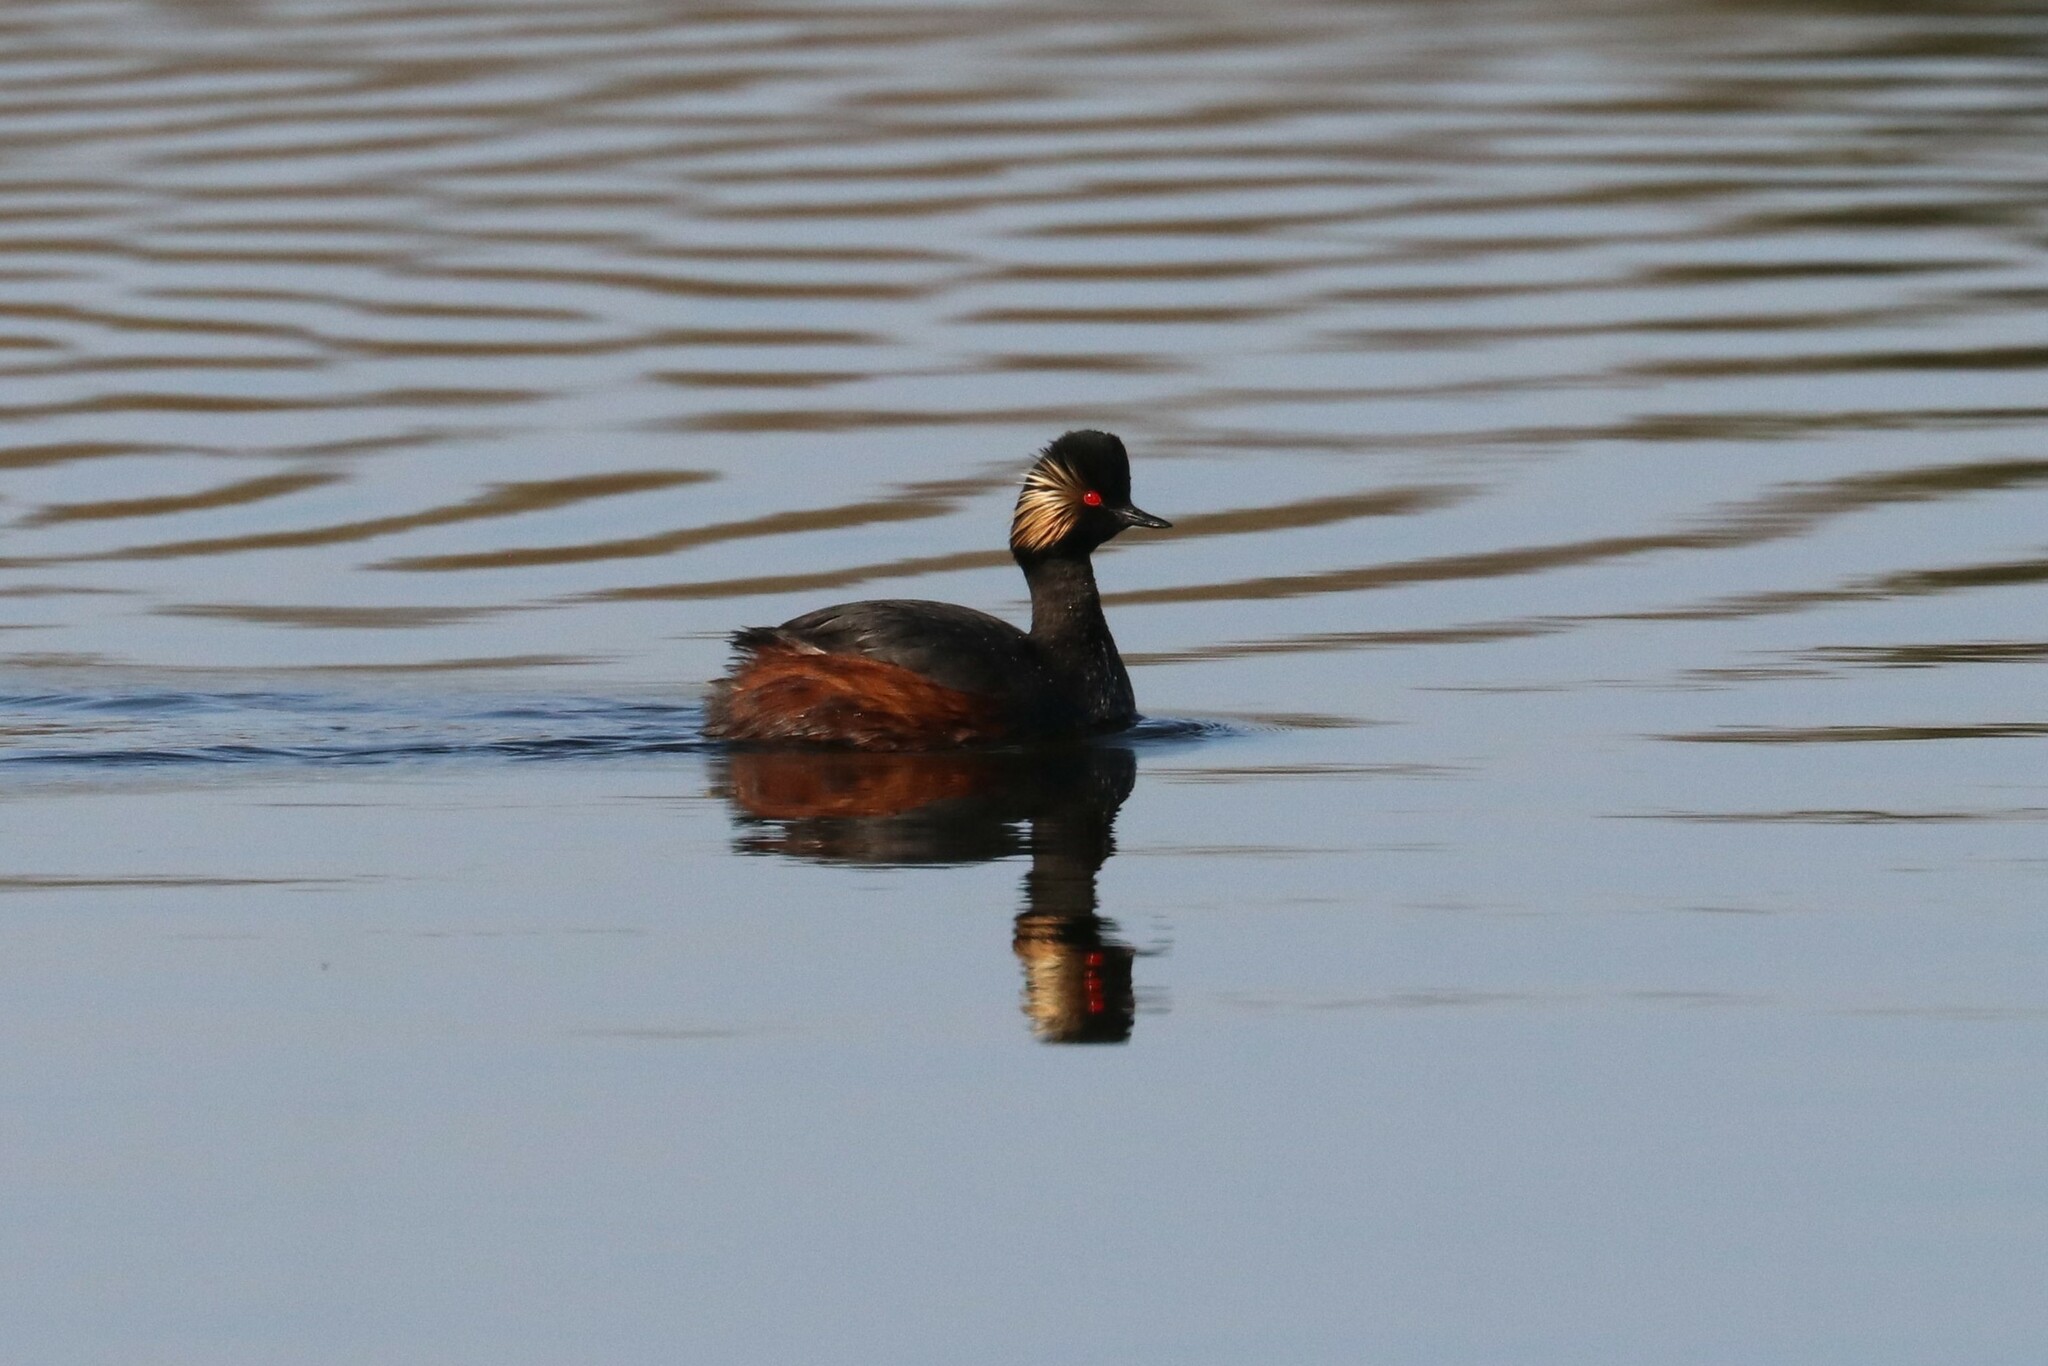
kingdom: Animalia
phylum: Chordata
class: Aves
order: Podicipediformes
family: Podicipedidae
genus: Podiceps
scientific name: Podiceps nigricollis
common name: Black-necked grebe
